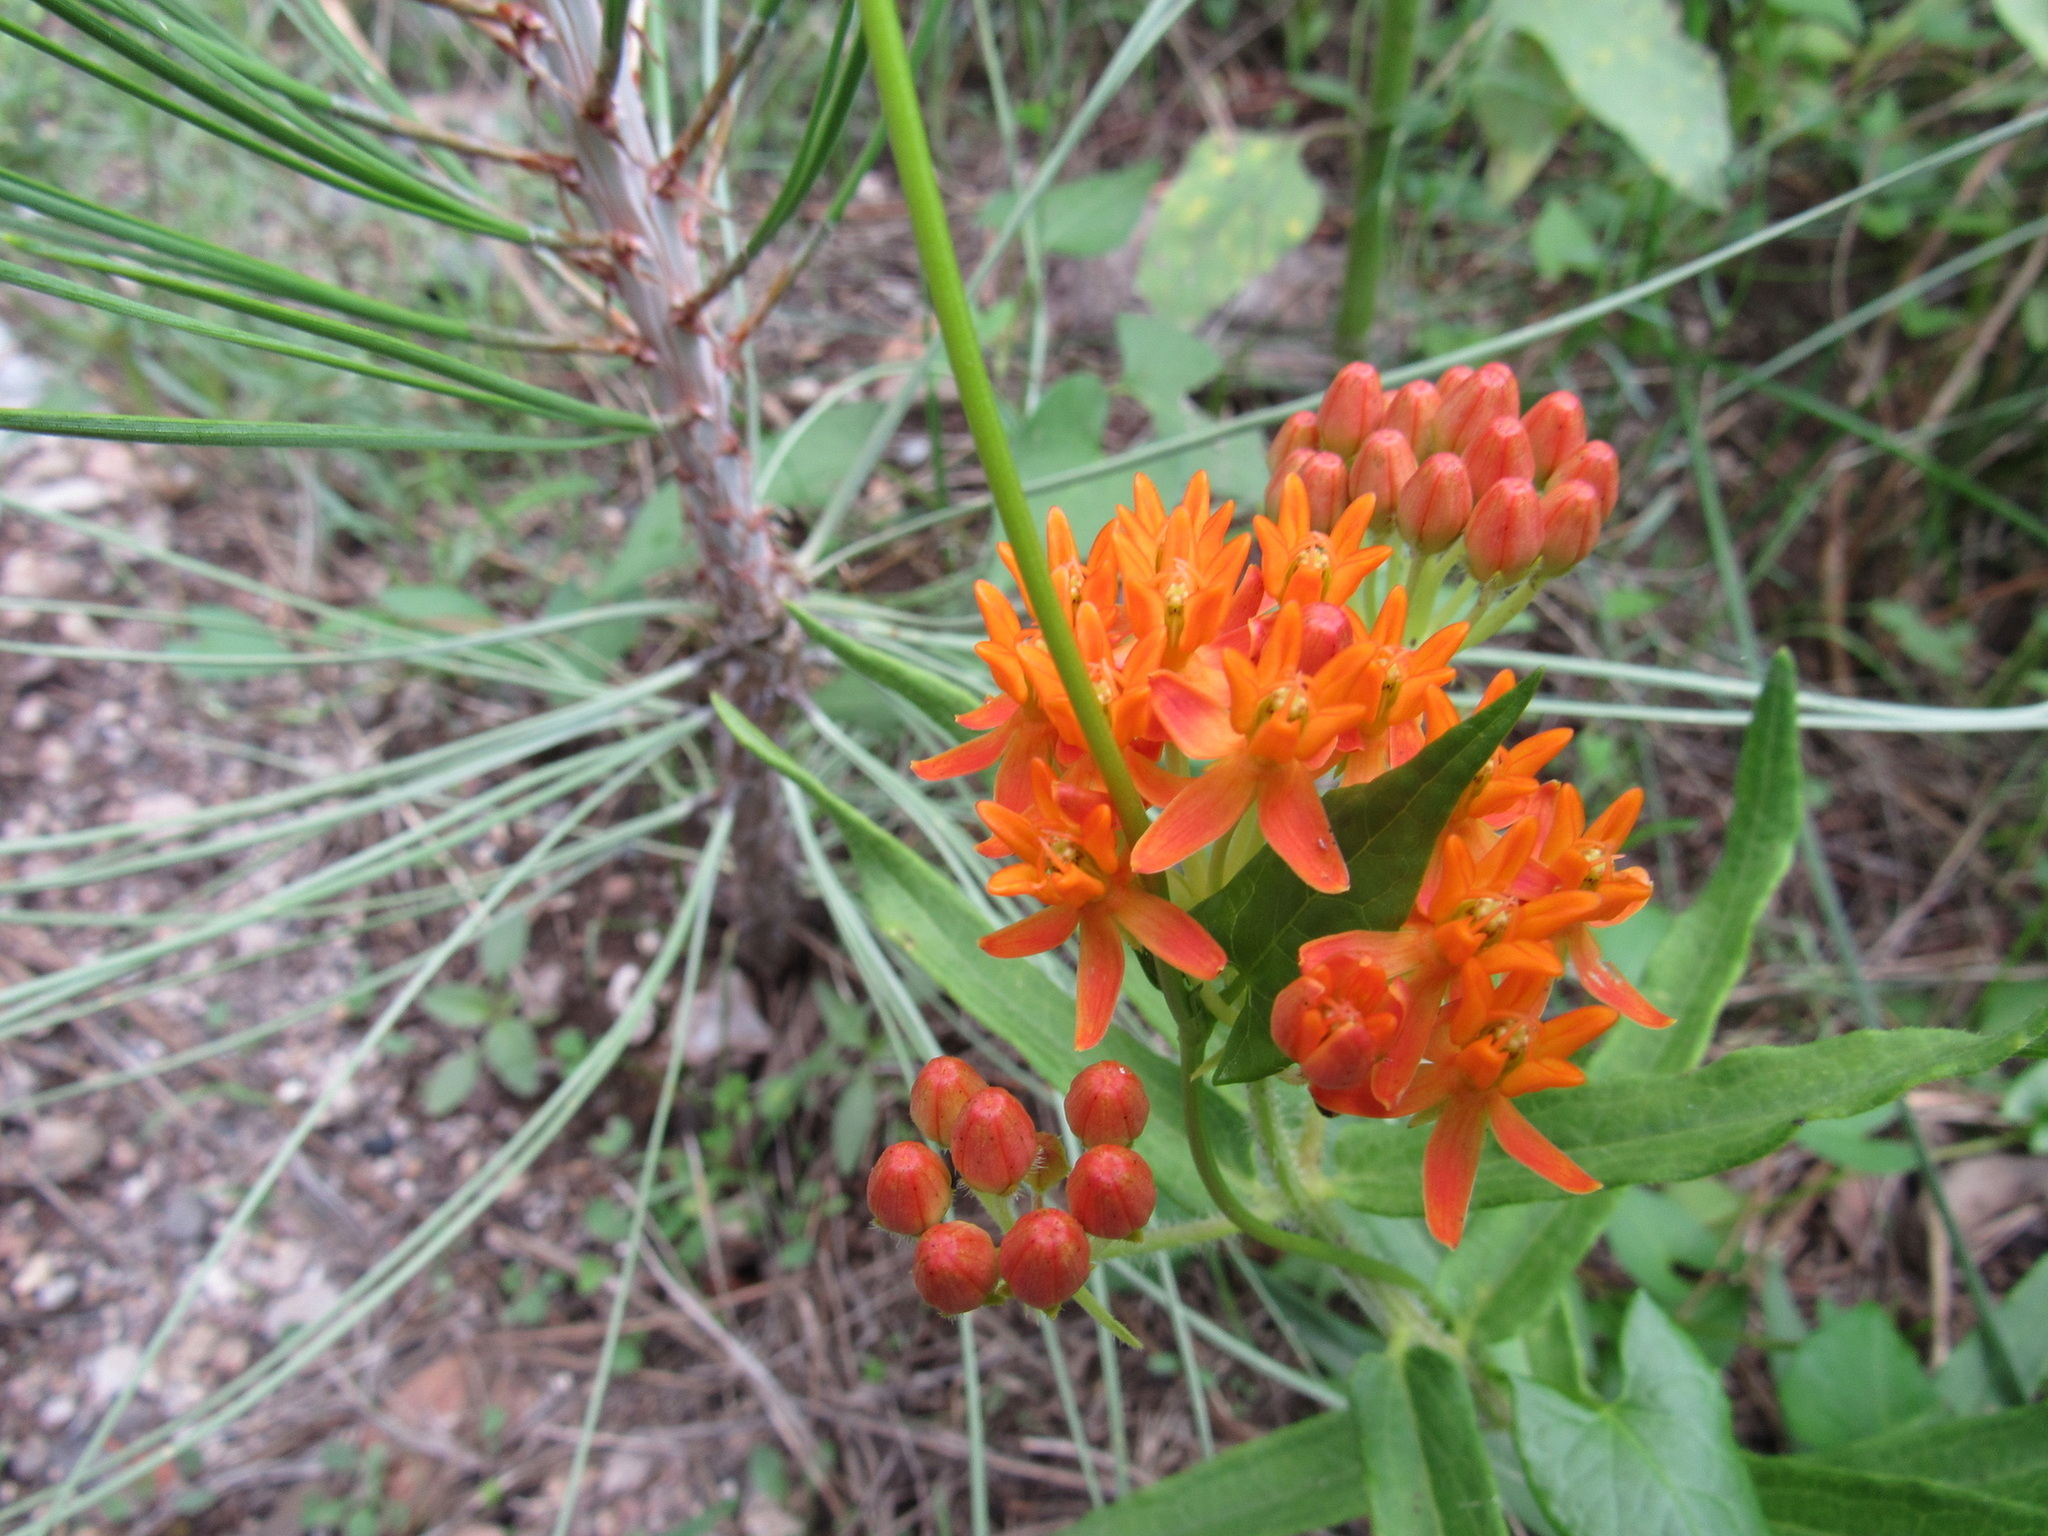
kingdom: Plantae
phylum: Tracheophyta
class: Magnoliopsida
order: Gentianales
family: Apocynaceae
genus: Asclepias
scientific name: Asclepias tuberosa
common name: Butterfly milkweed
